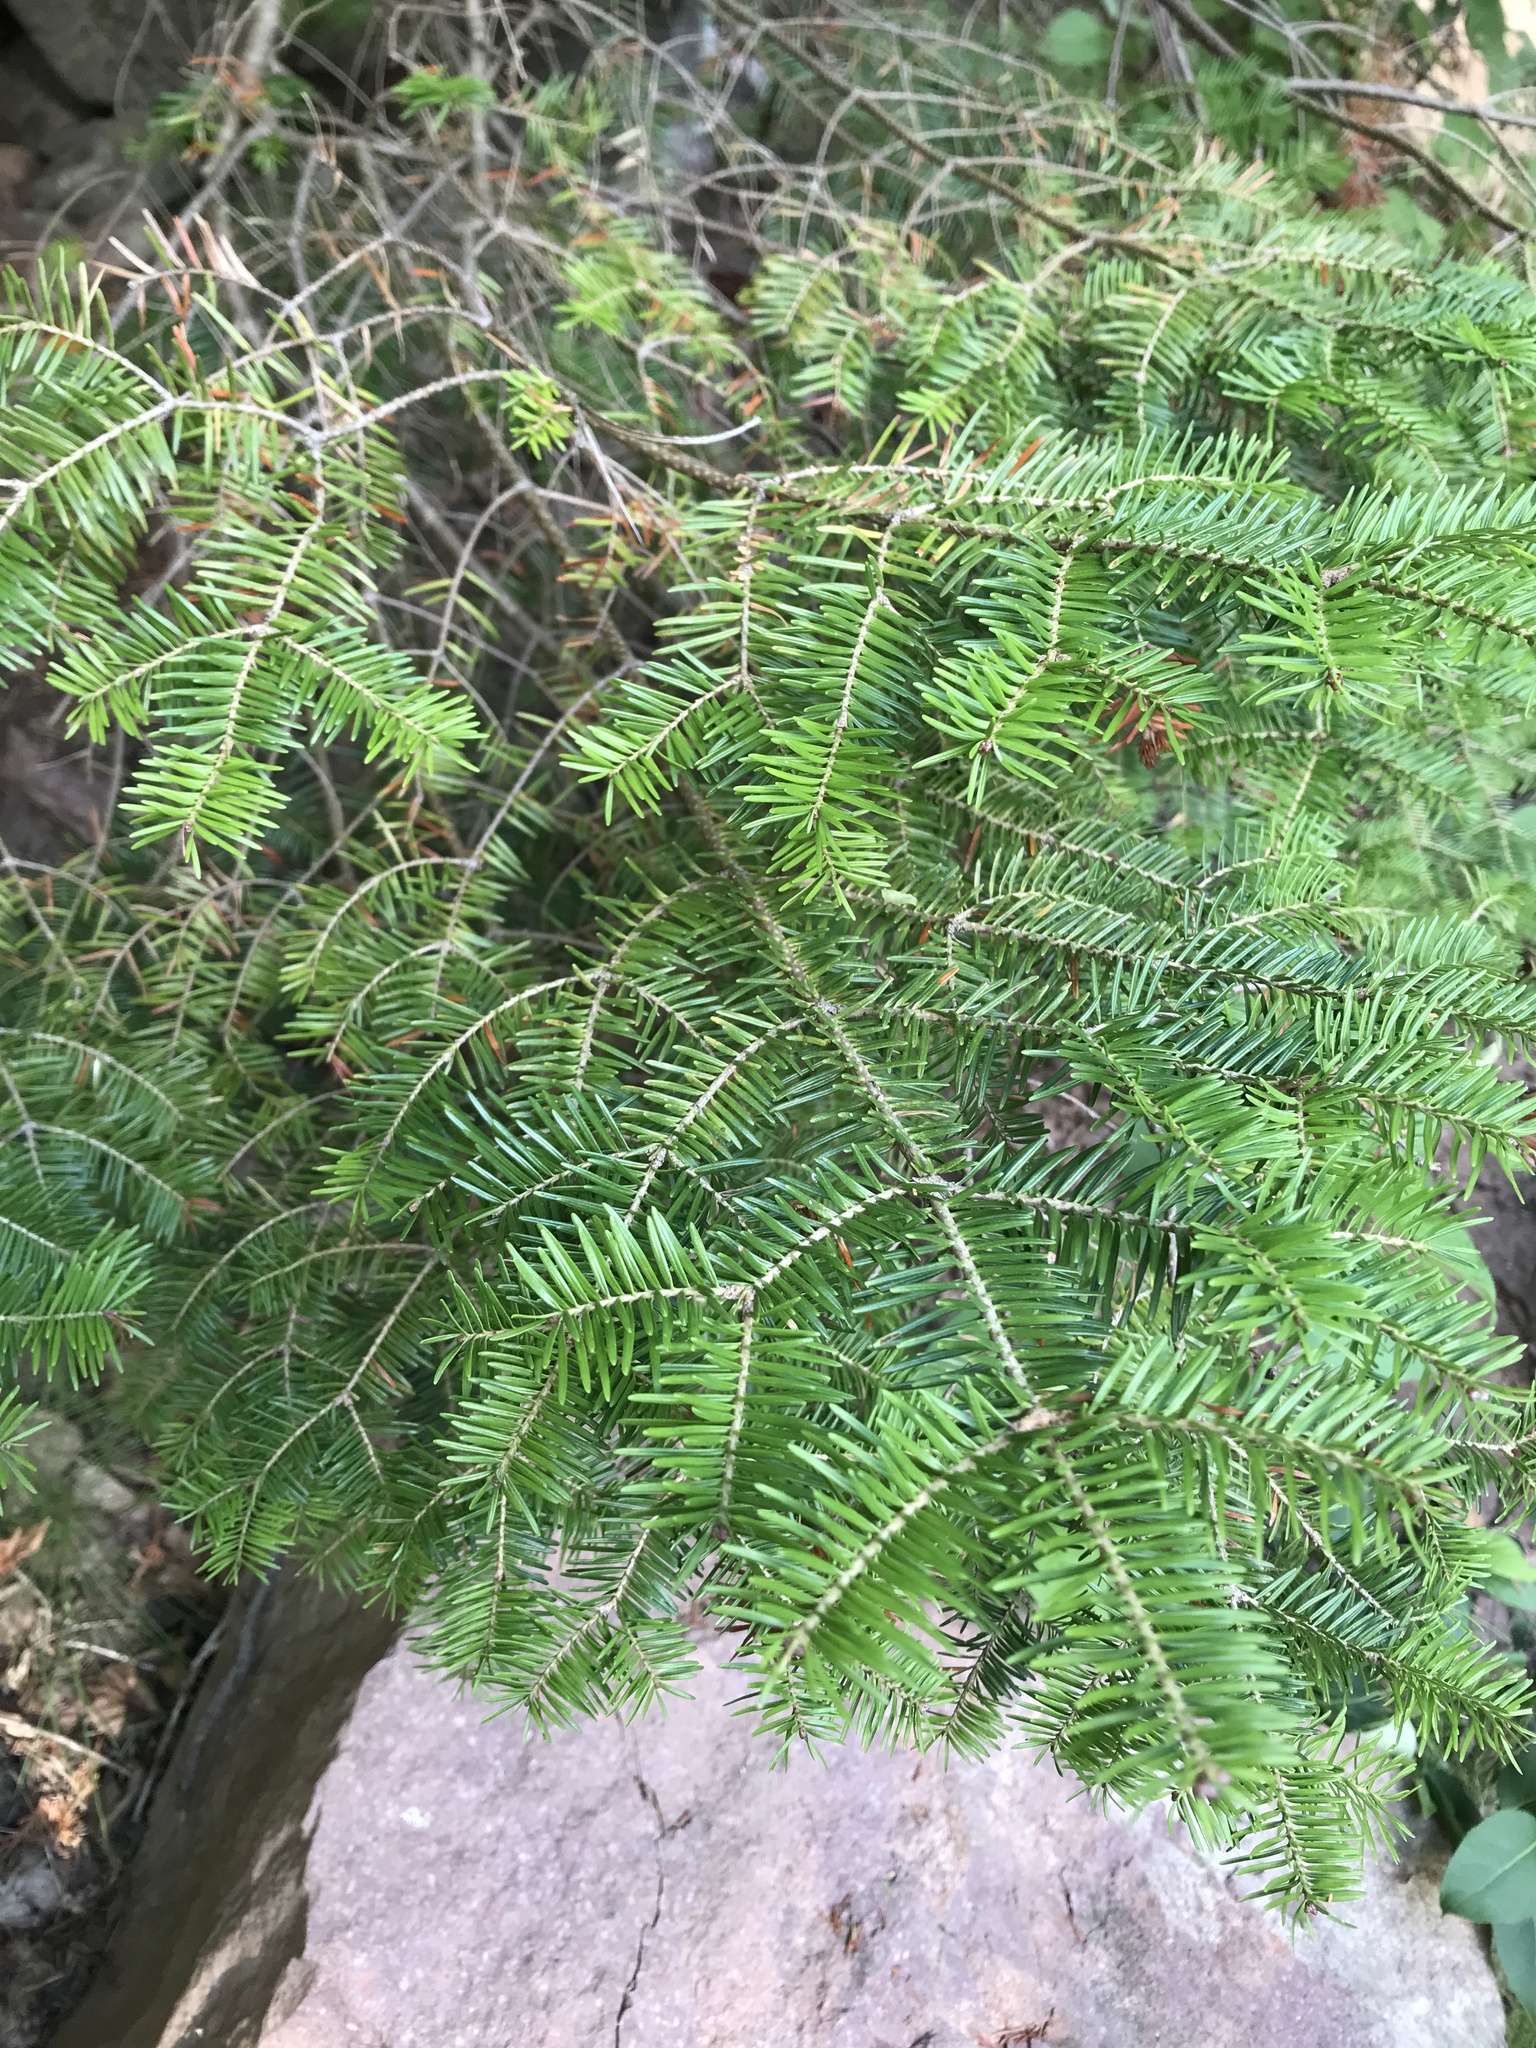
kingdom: Plantae
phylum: Tracheophyta
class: Pinopsida
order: Pinales
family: Pinaceae
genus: Abies
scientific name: Abies balsamea
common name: Balsam fir
